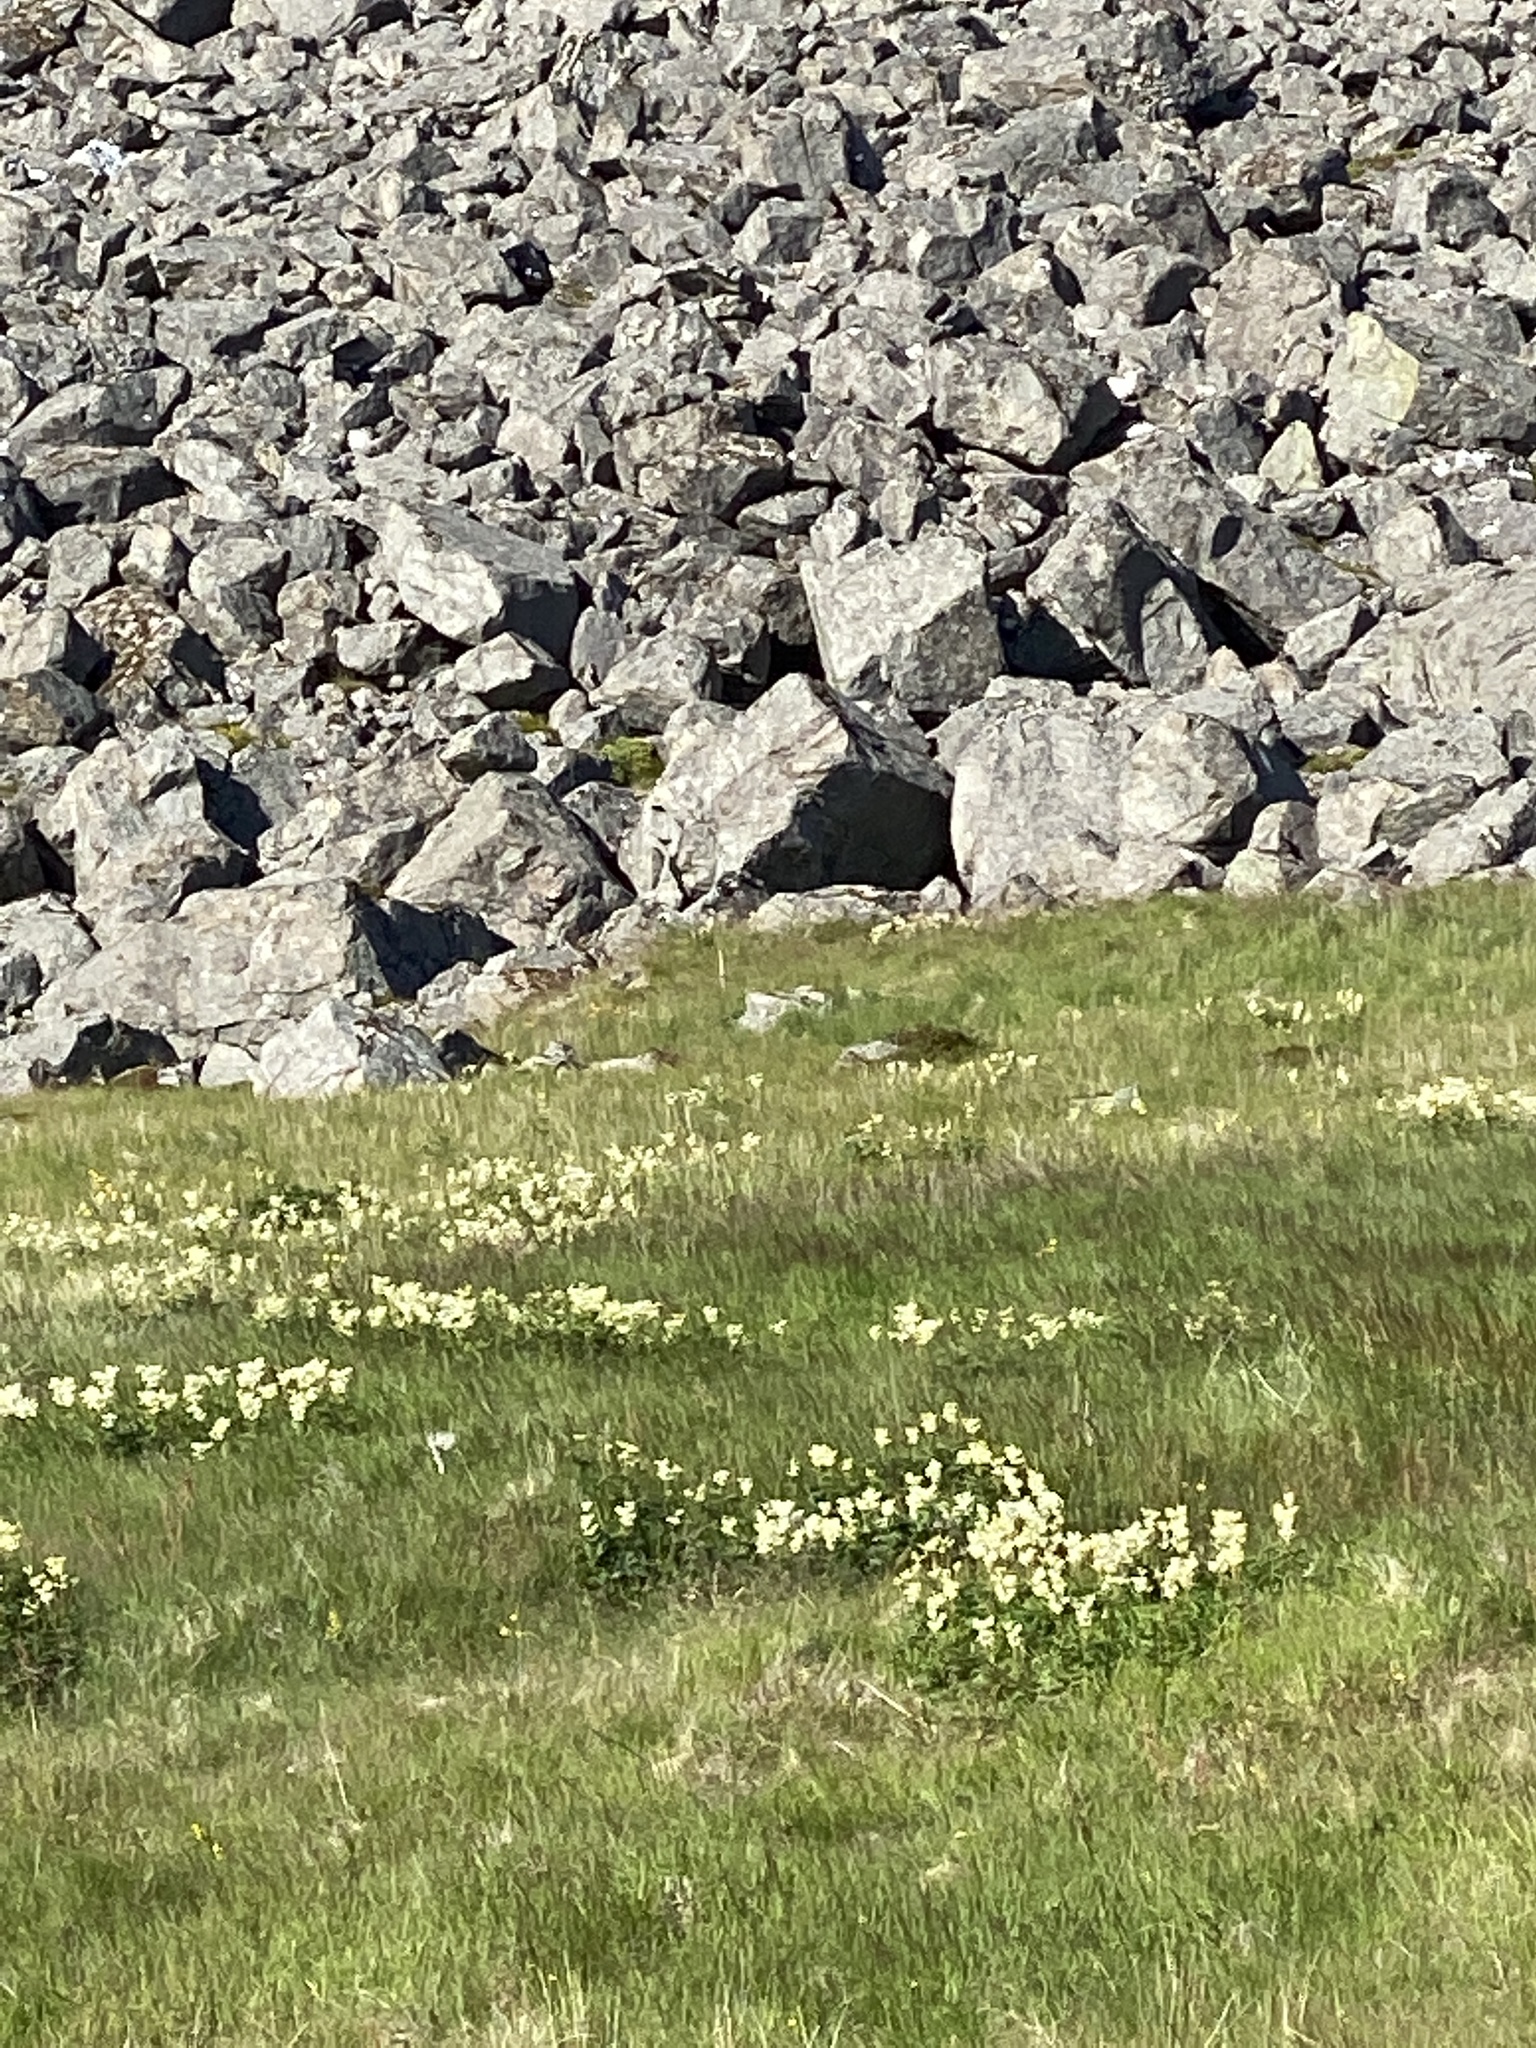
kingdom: Plantae
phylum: Tracheophyta
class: Magnoliopsida
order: Rosales
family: Rosaceae
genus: Filipendula
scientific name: Filipendula ulmaria
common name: Meadowsweet
